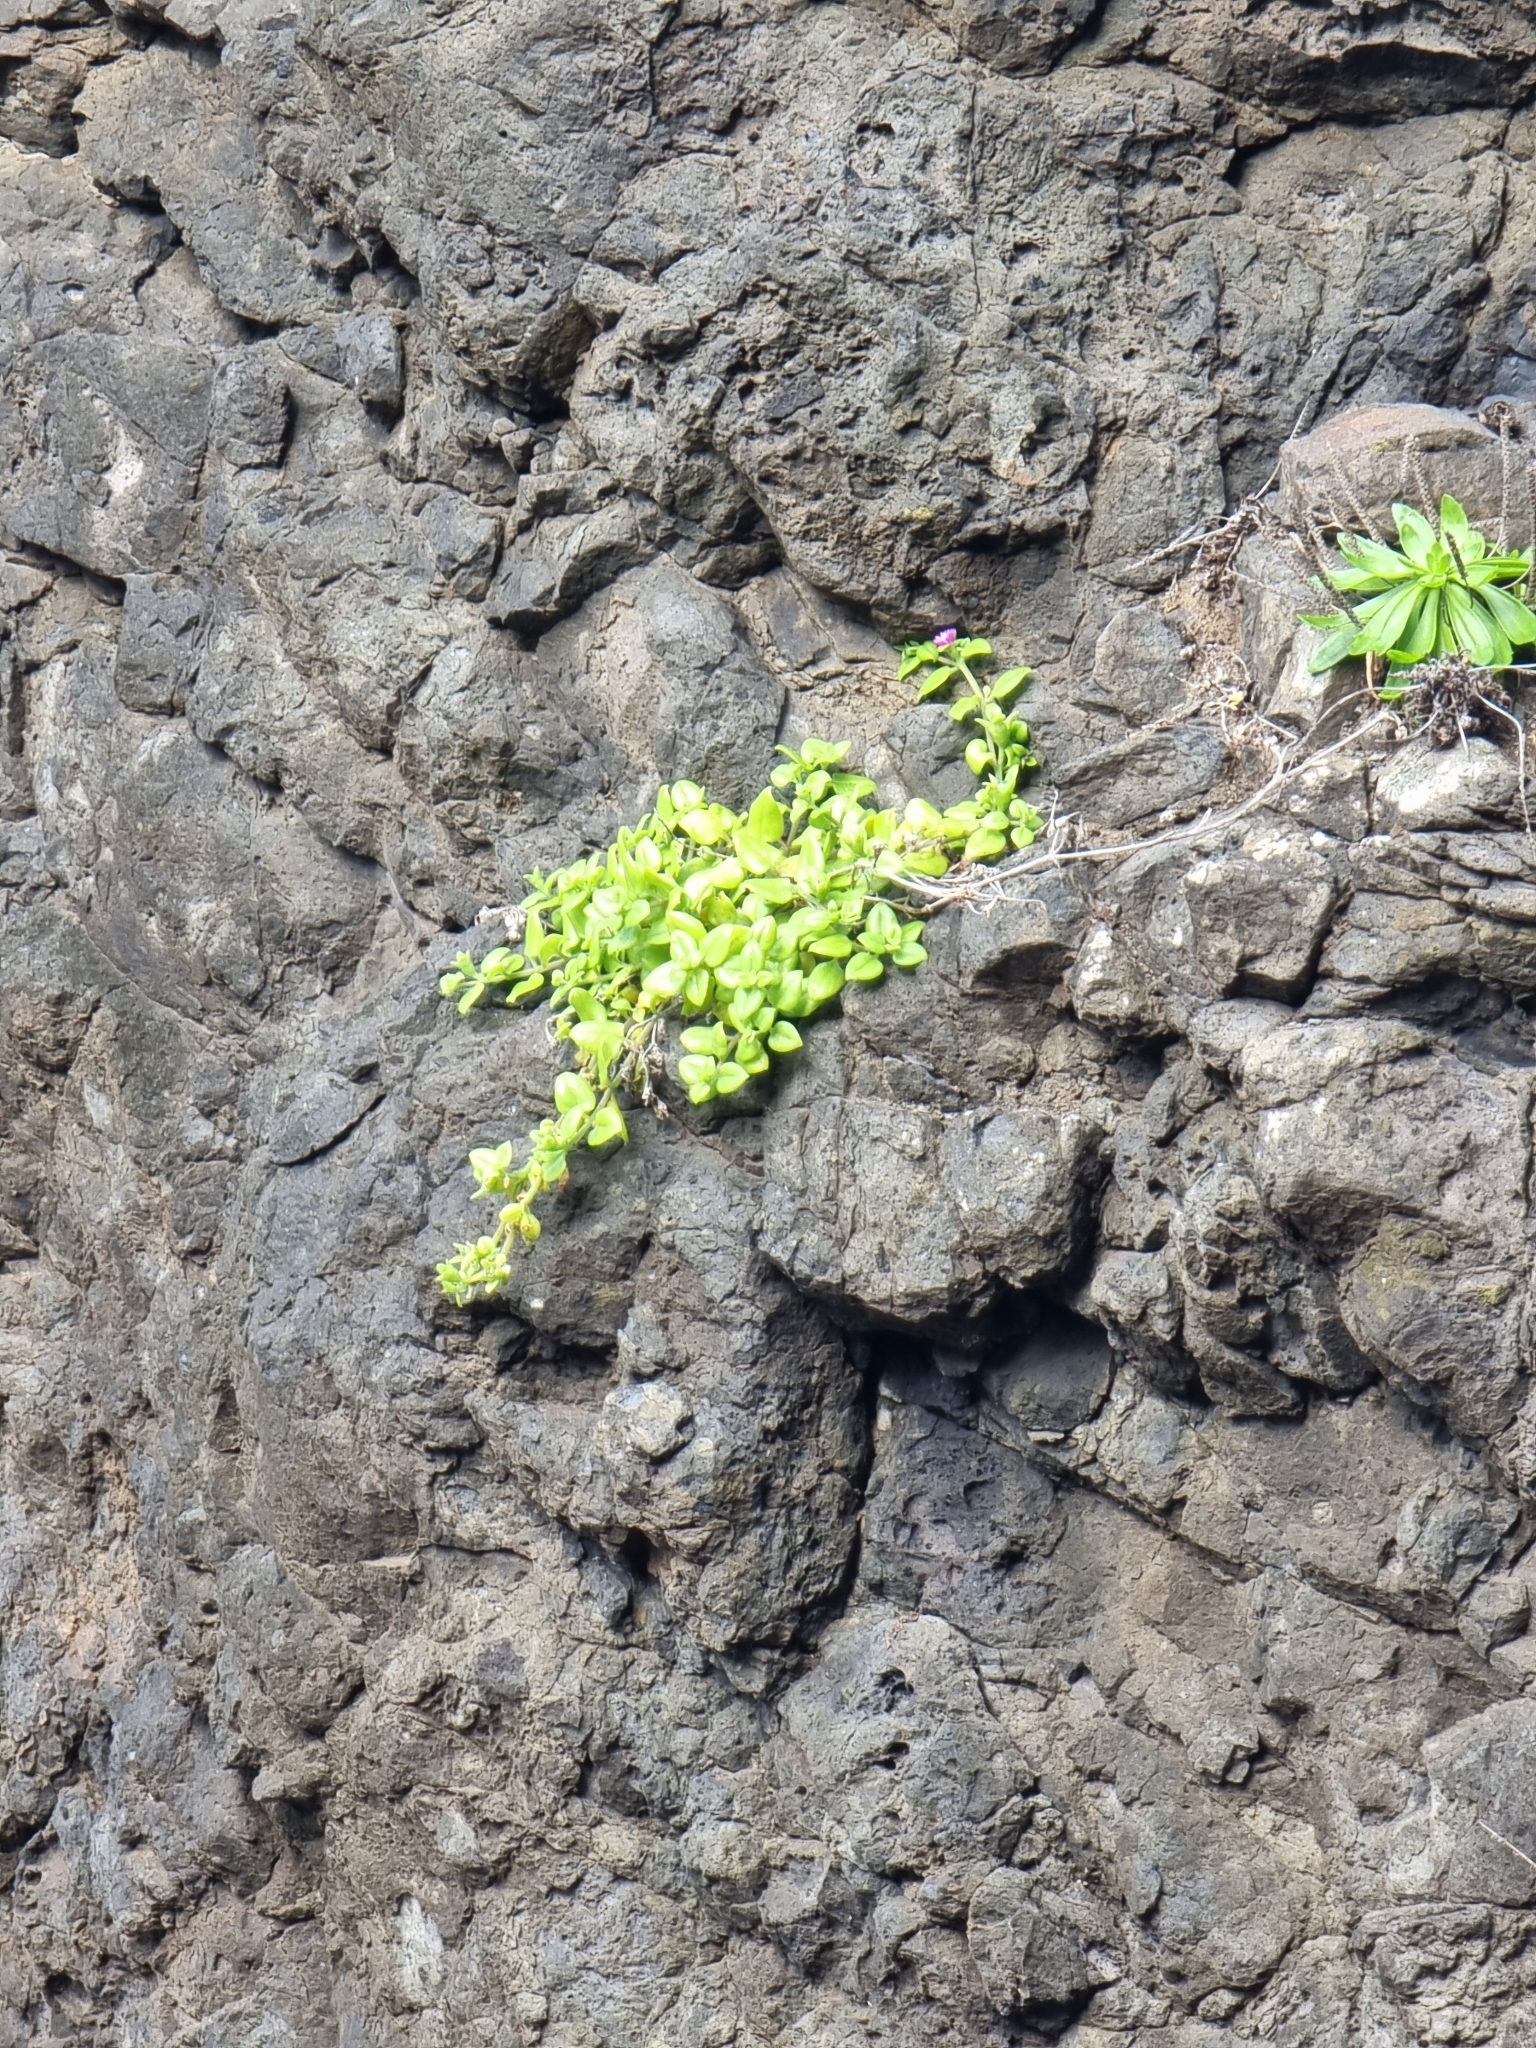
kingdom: Plantae
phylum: Tracheophyta
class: Magnoliopsida
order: Caryophyllales
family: Aizoaceae
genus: Mesembryanthemum
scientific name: Mesembryanthemum cordifolium
